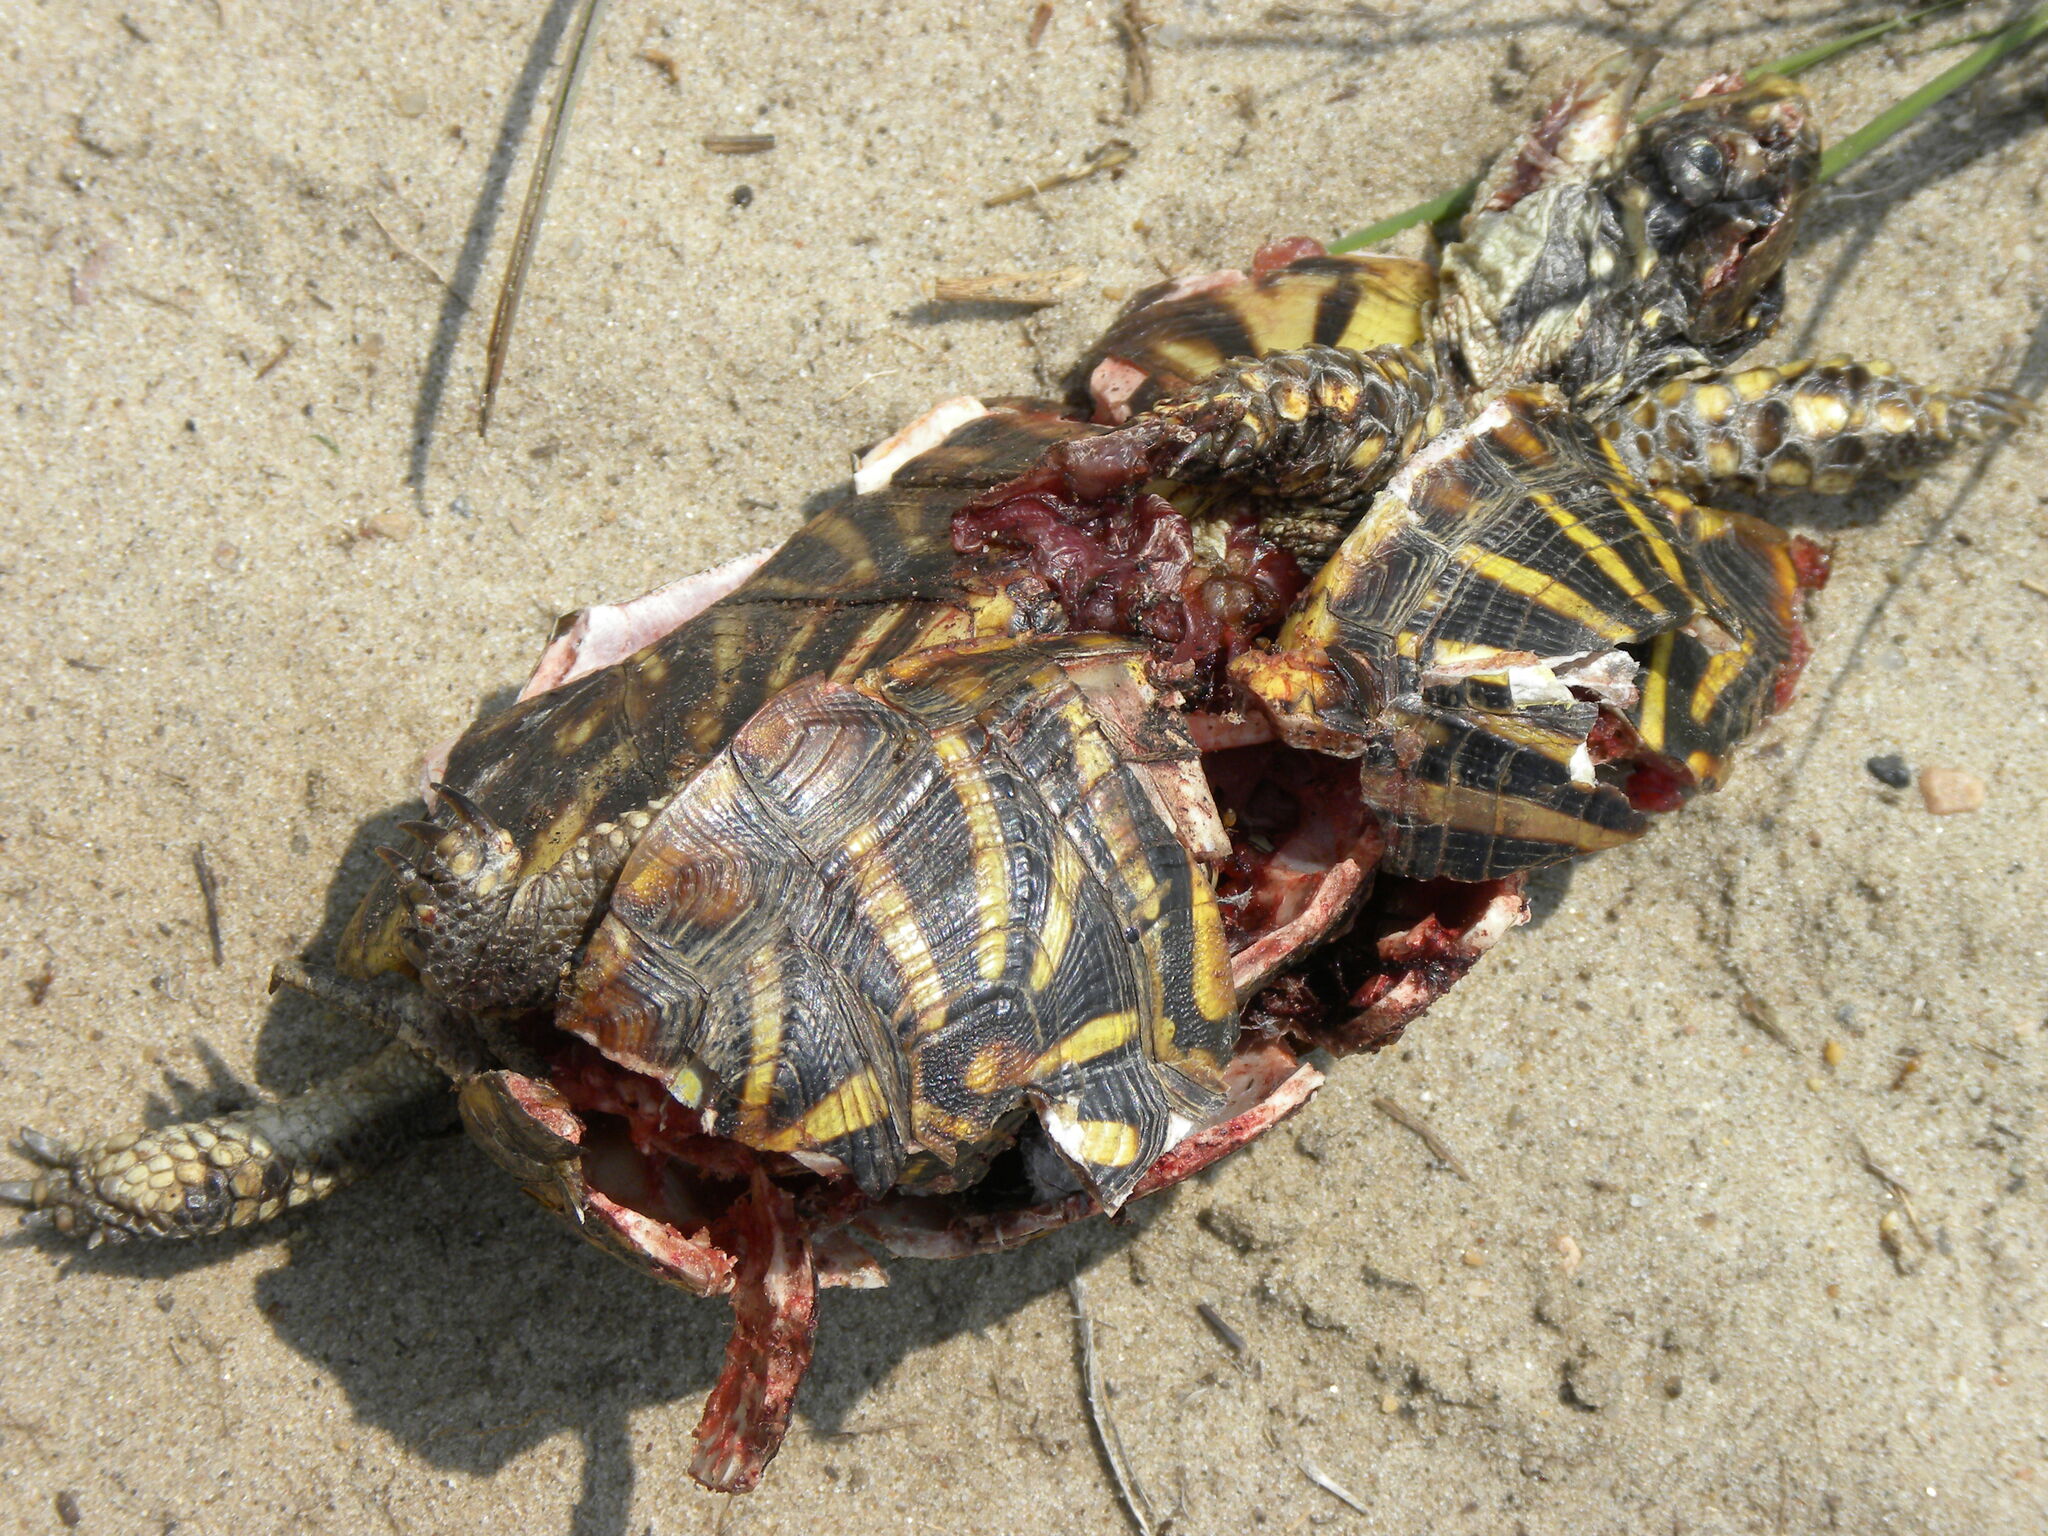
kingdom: Animalia
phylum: Chordata
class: Testudines
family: Emydidae
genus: Terrapene
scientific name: Terrapene ornata
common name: Western box turtle
